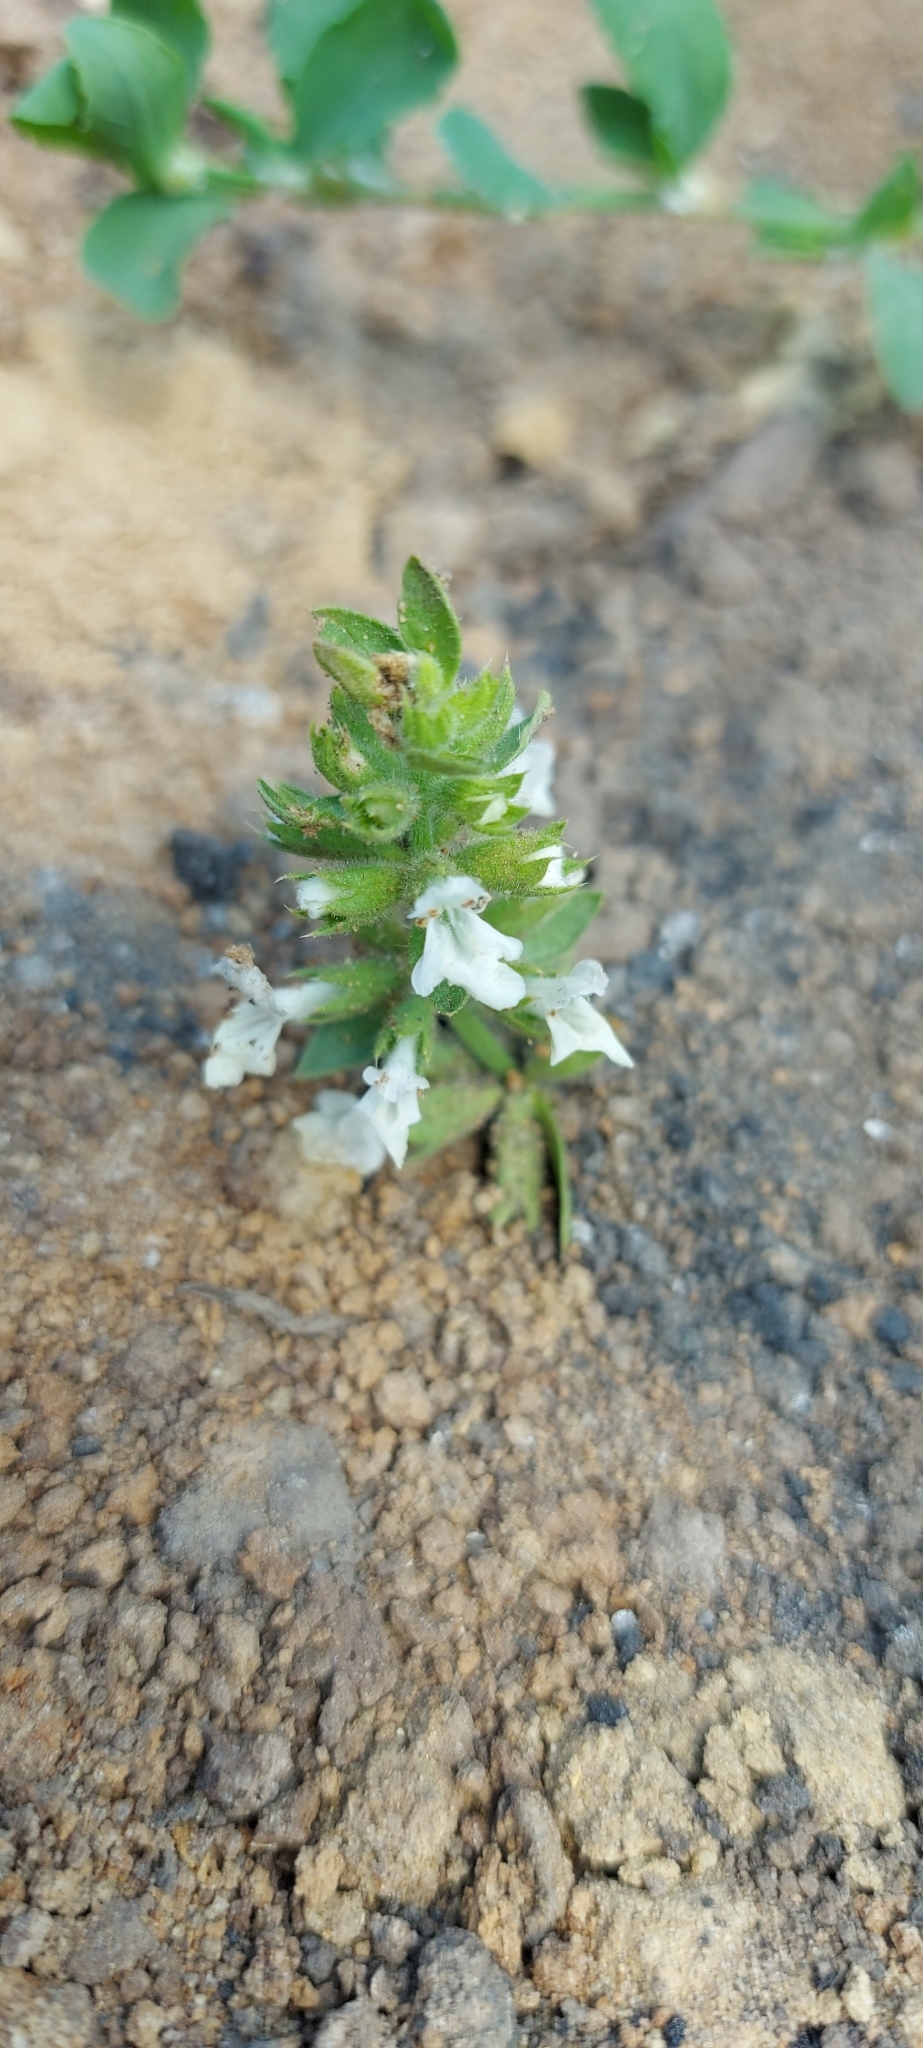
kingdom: Plantae
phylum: Tracheophyta
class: Magnoliopsida
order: Lamiales
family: Lamiaceae
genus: Stachys
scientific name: Stachys annua
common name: Annual yellow-woundwort
